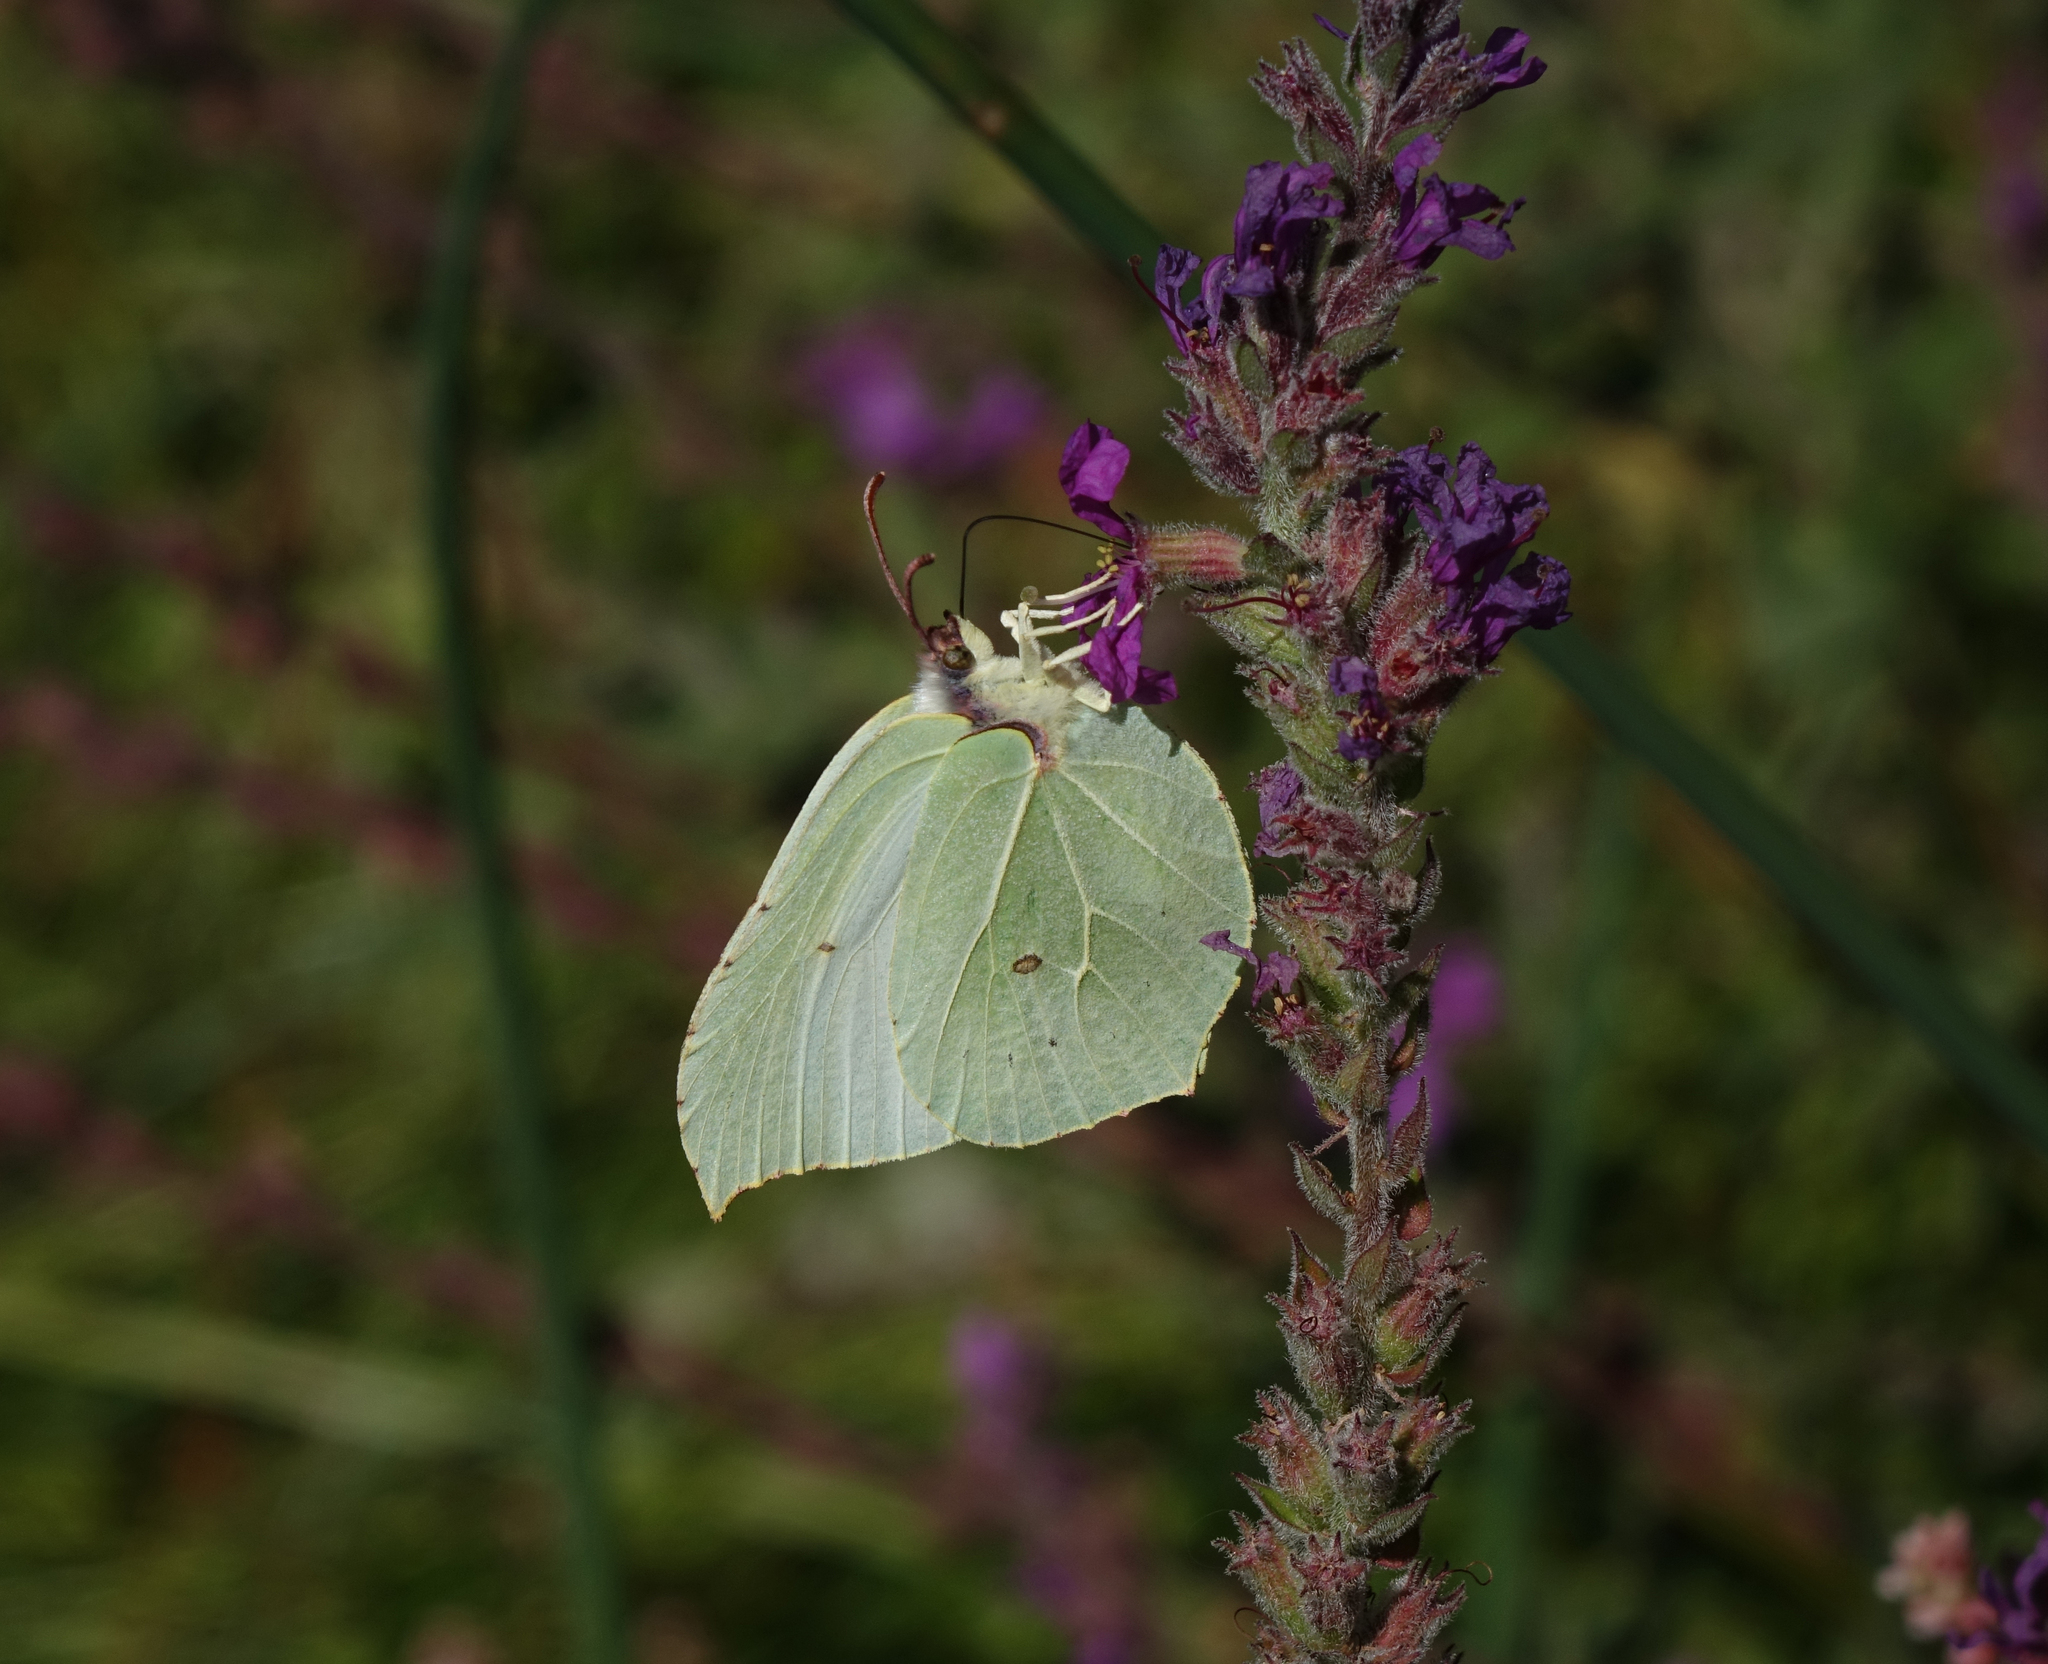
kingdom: Animalia
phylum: Arthropoda
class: Insecta
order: Lepidoptera
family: Pieridae
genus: Gonepteryx
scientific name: Gonepteryx rhamni
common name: Brimstone
